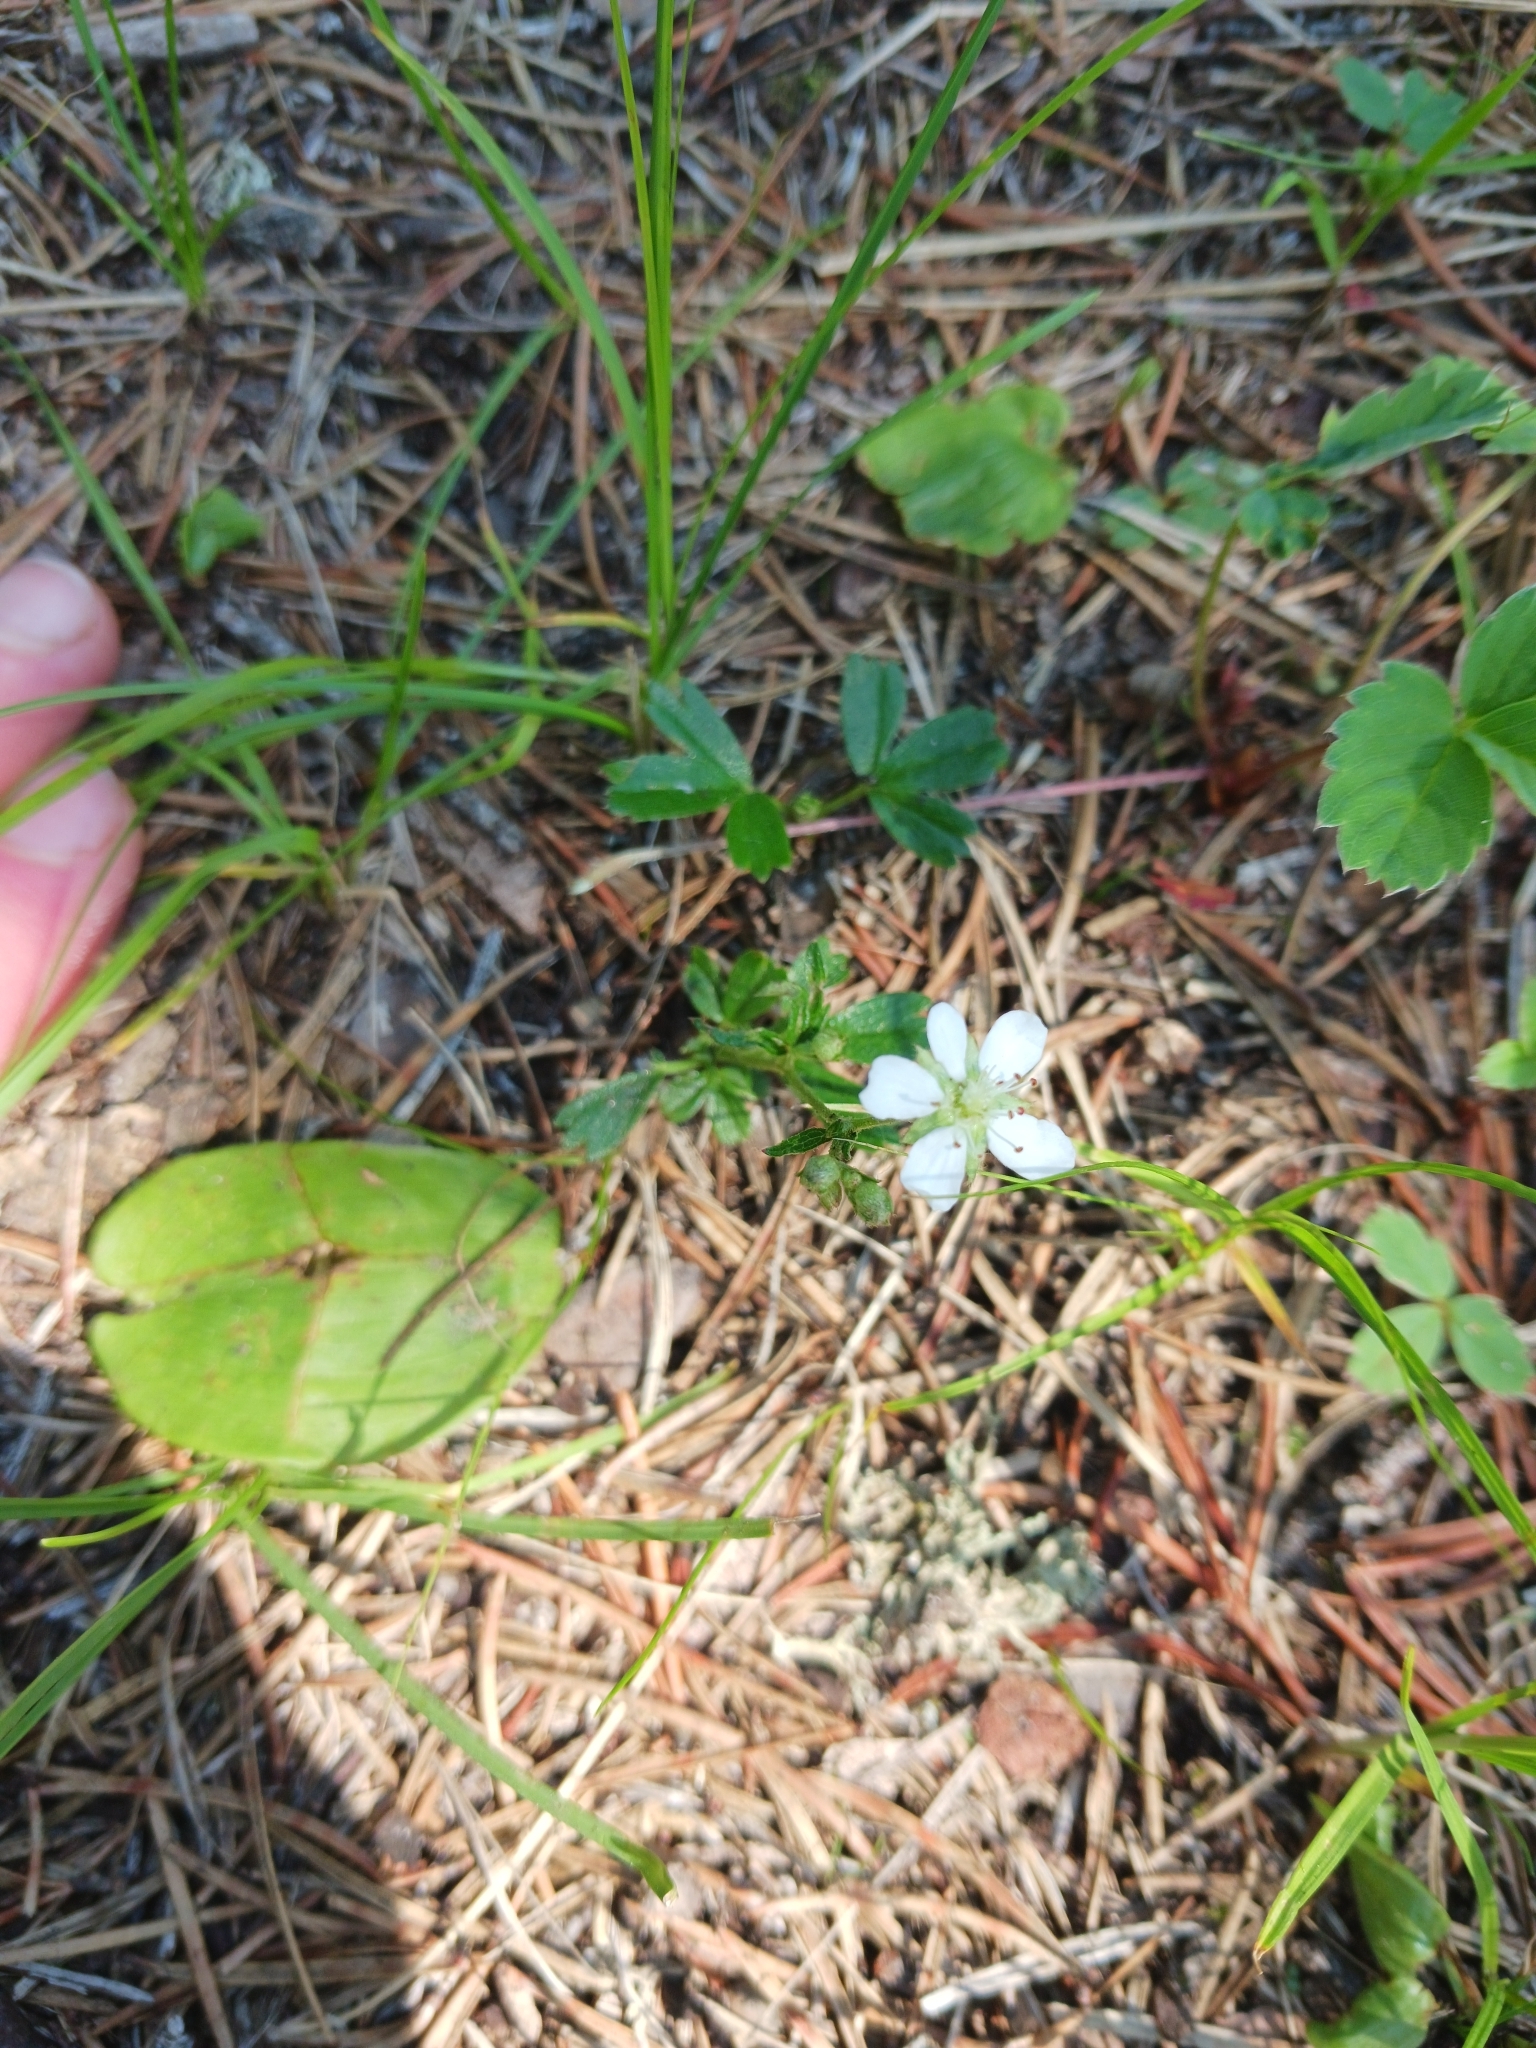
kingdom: Plantae
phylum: Tracheophyta
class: Magnoliopsida
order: Rosales
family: Rosaceae
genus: Sibbaldia
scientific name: Sibbaldia tridentata
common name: Three-toothed cinquefoil
